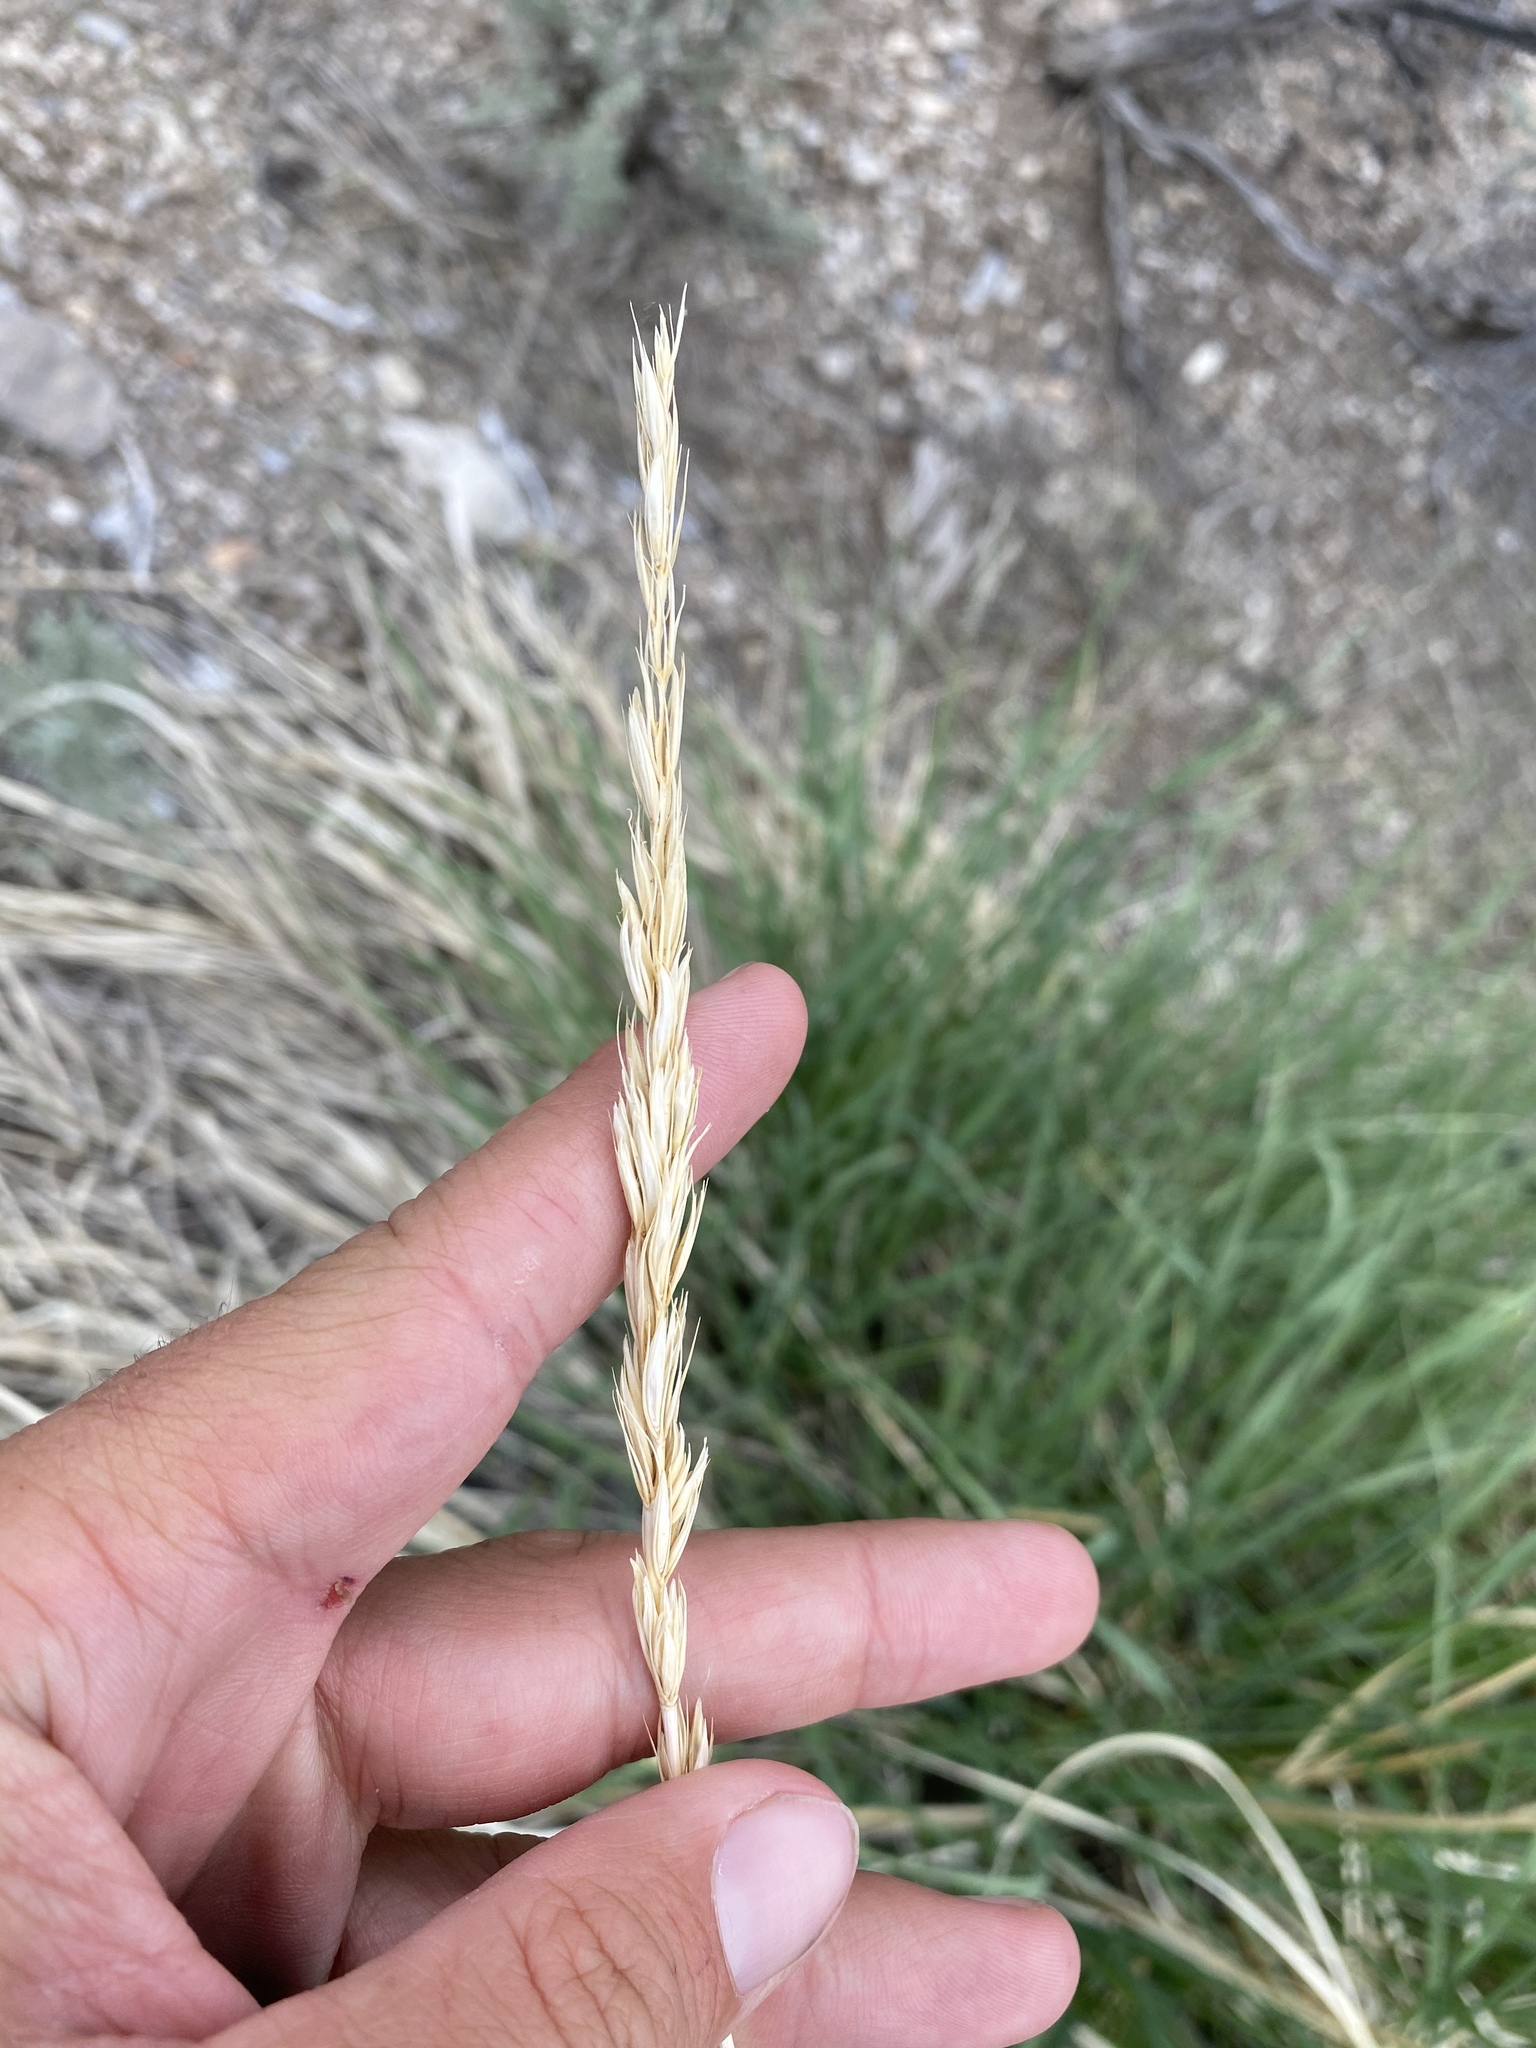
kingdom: Plantae
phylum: Tracheophyta
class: Liliopsida
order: Poales
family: Poaceae
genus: Leymus
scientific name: Leymus cinereus
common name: Basin wild rye
